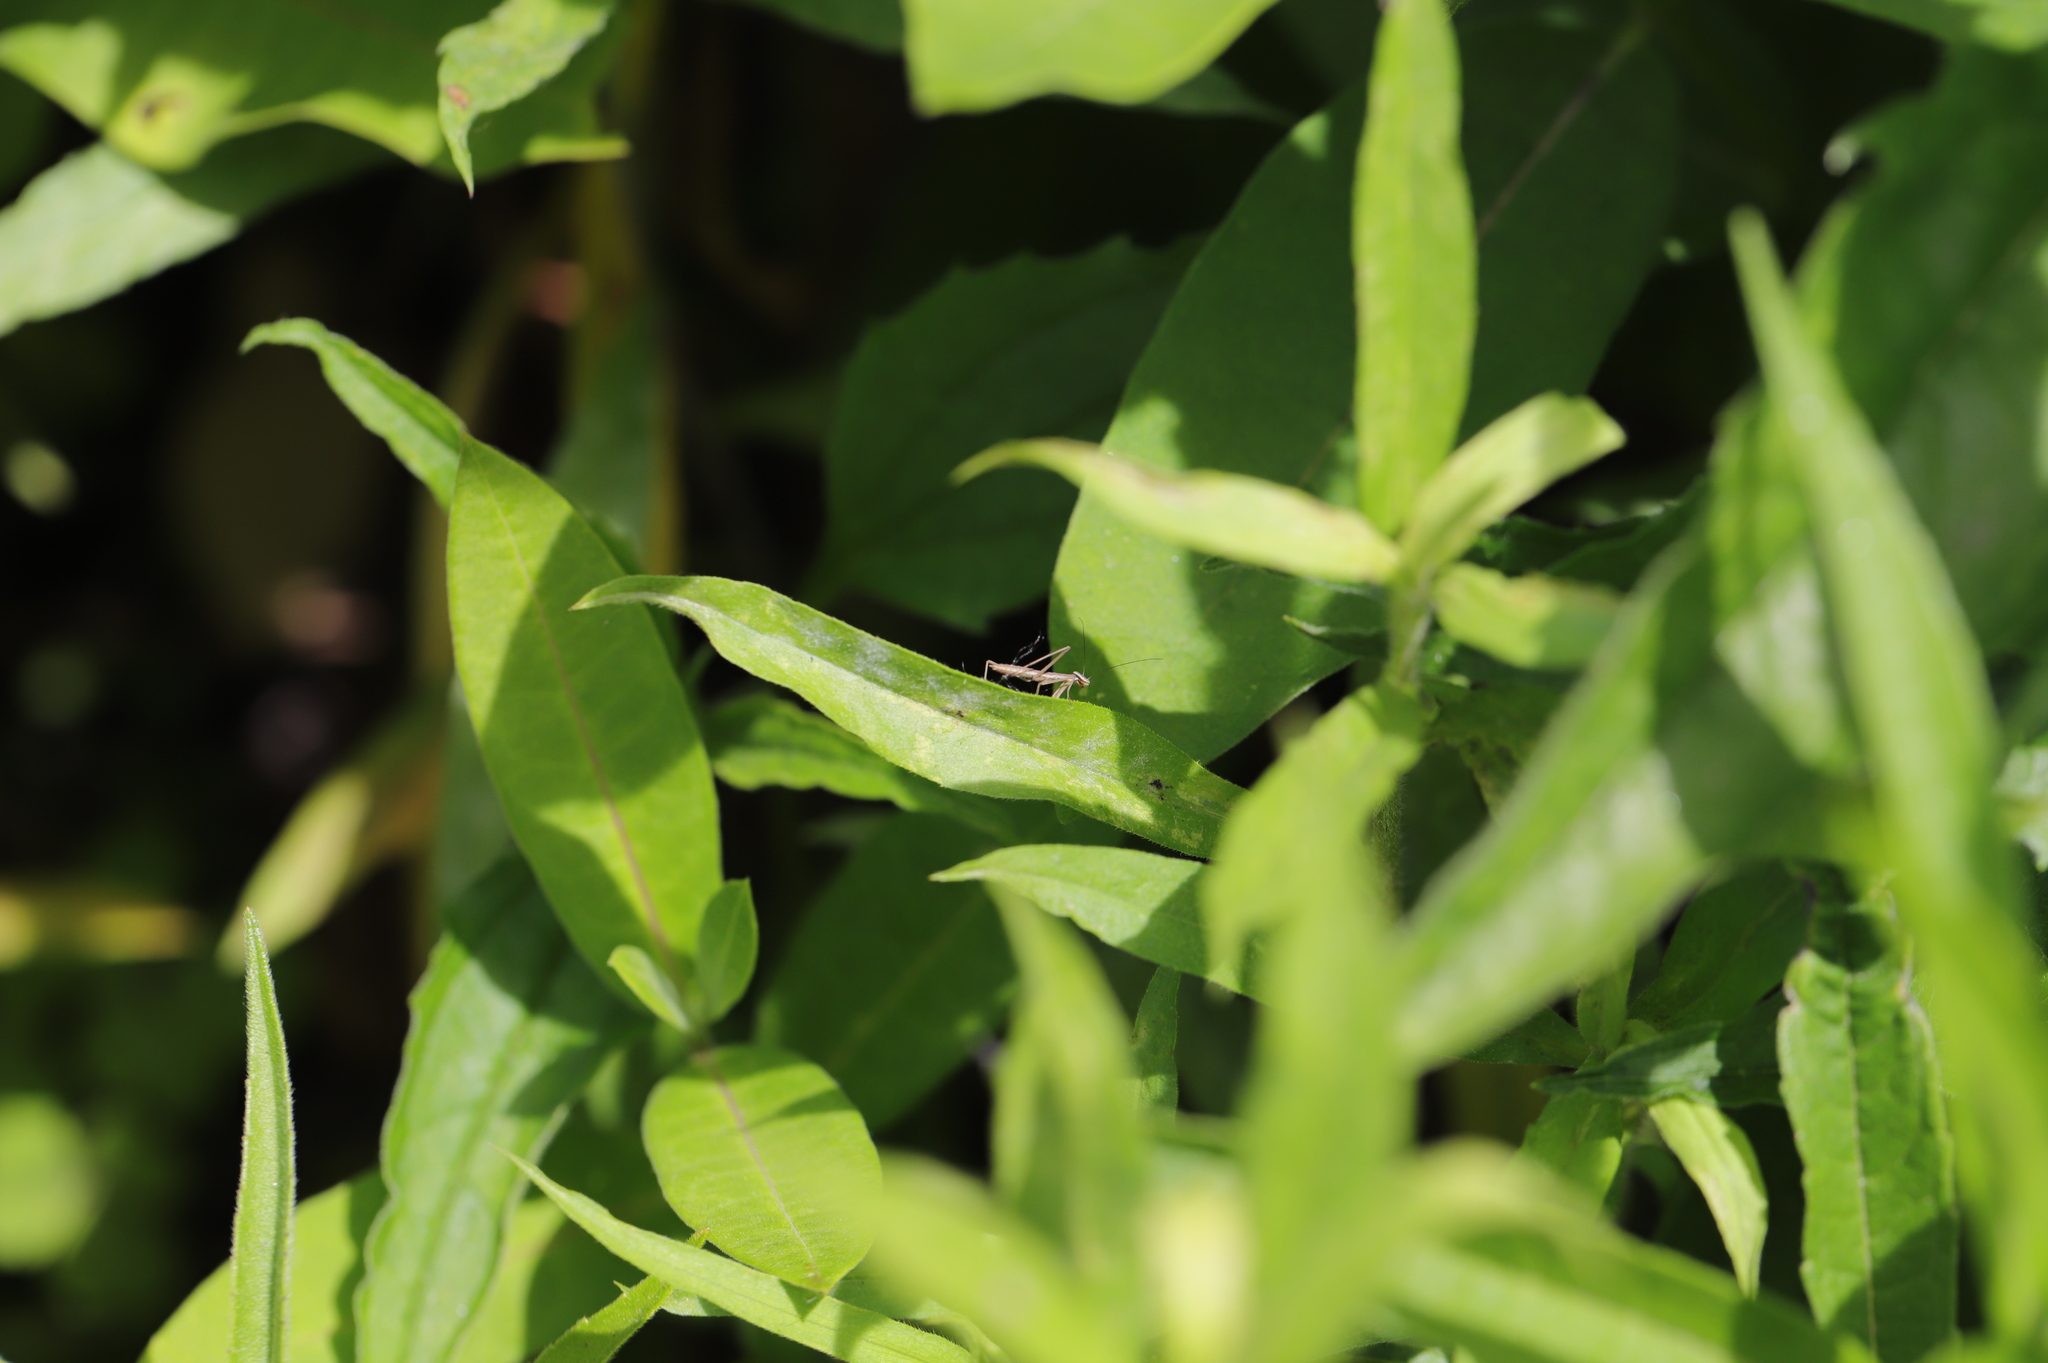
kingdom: Animalia
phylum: Arthropoda
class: Insecta
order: Mantodea
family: Mantidae
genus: Tenodera
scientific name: Tenodera sinensis
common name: Chinese mantis
